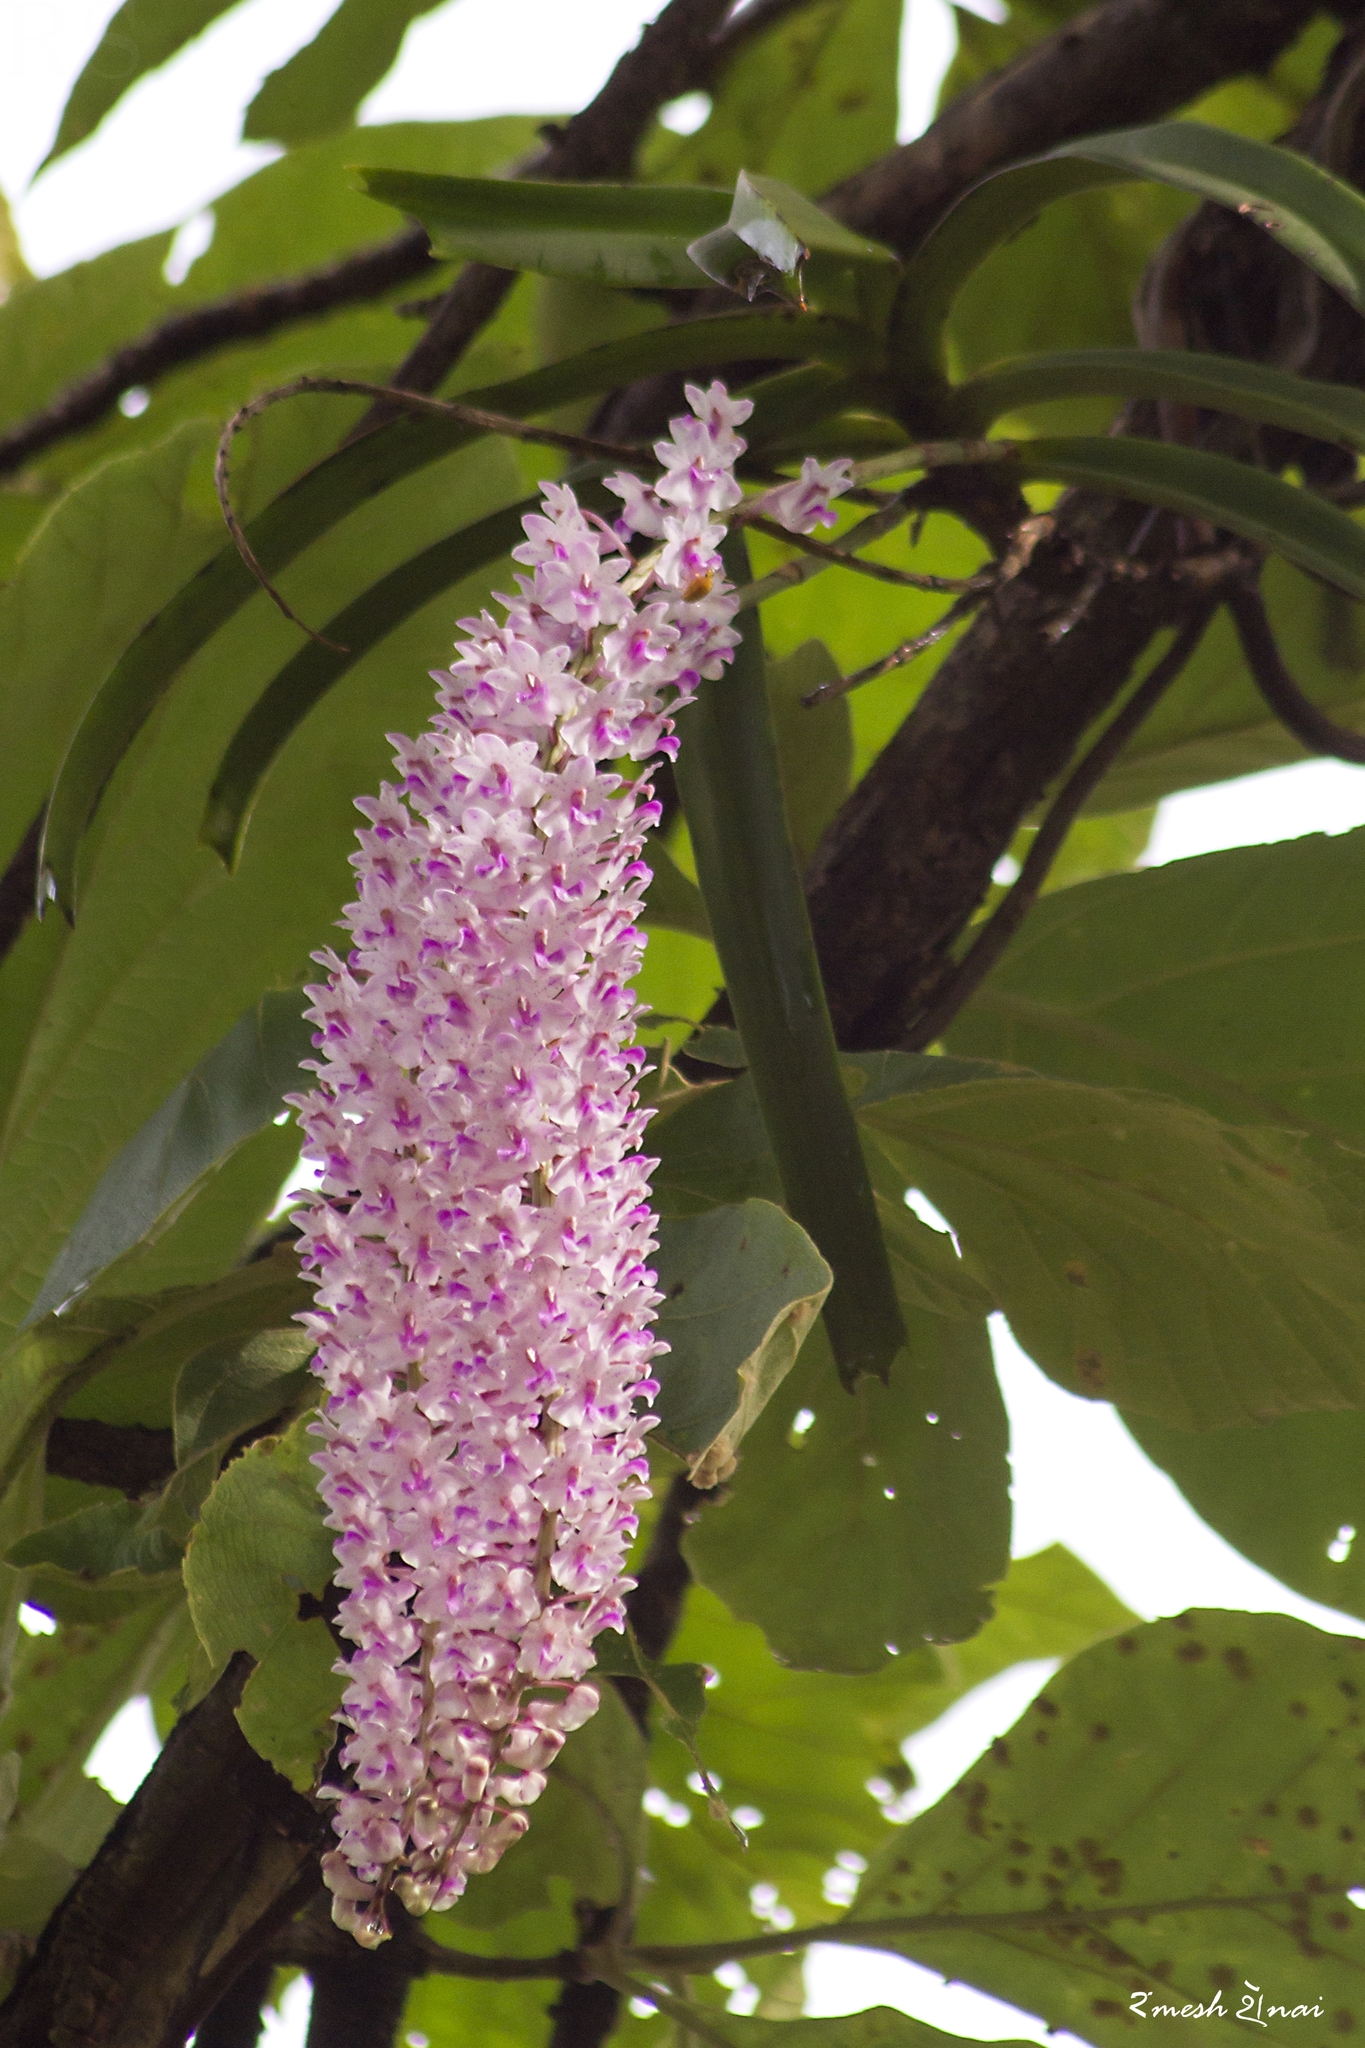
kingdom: Plantae
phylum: Tracheophyta
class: Liliopsida
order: Asparagales
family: Orchidaceae
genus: Rhynchostylis
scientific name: Rhynchostylis retusa
